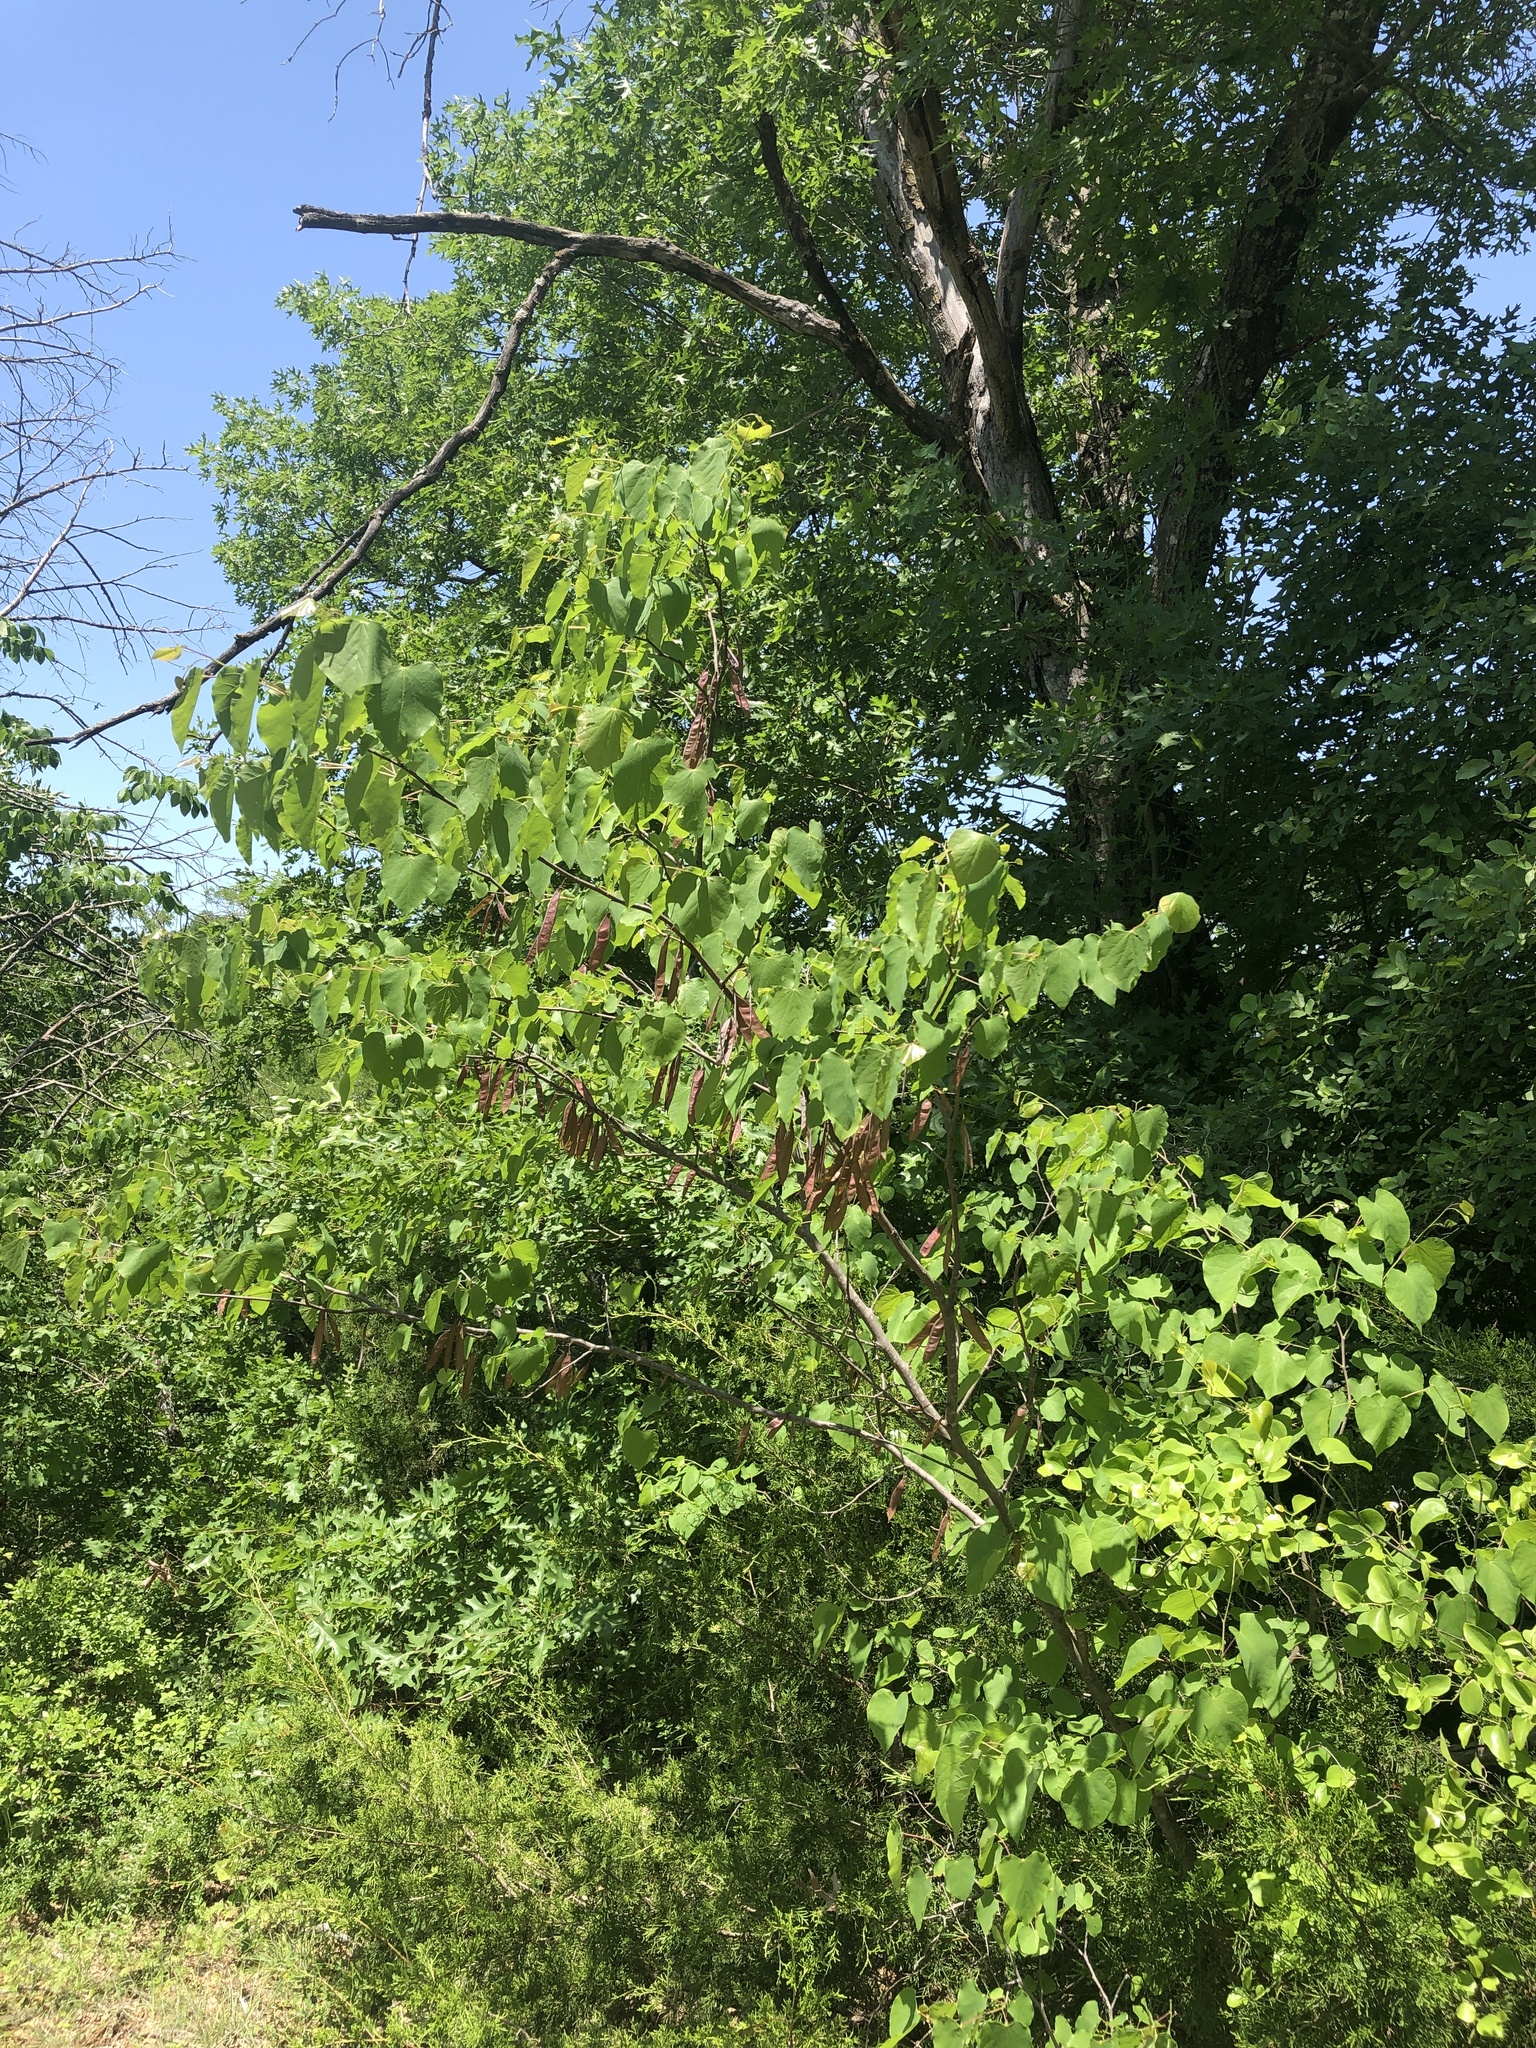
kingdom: Plantae
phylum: Tracheophyta
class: Magnoliopsida
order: Fabales
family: Fabaceae
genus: Cercis
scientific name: Cercis canadensis
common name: Eastern redbud
